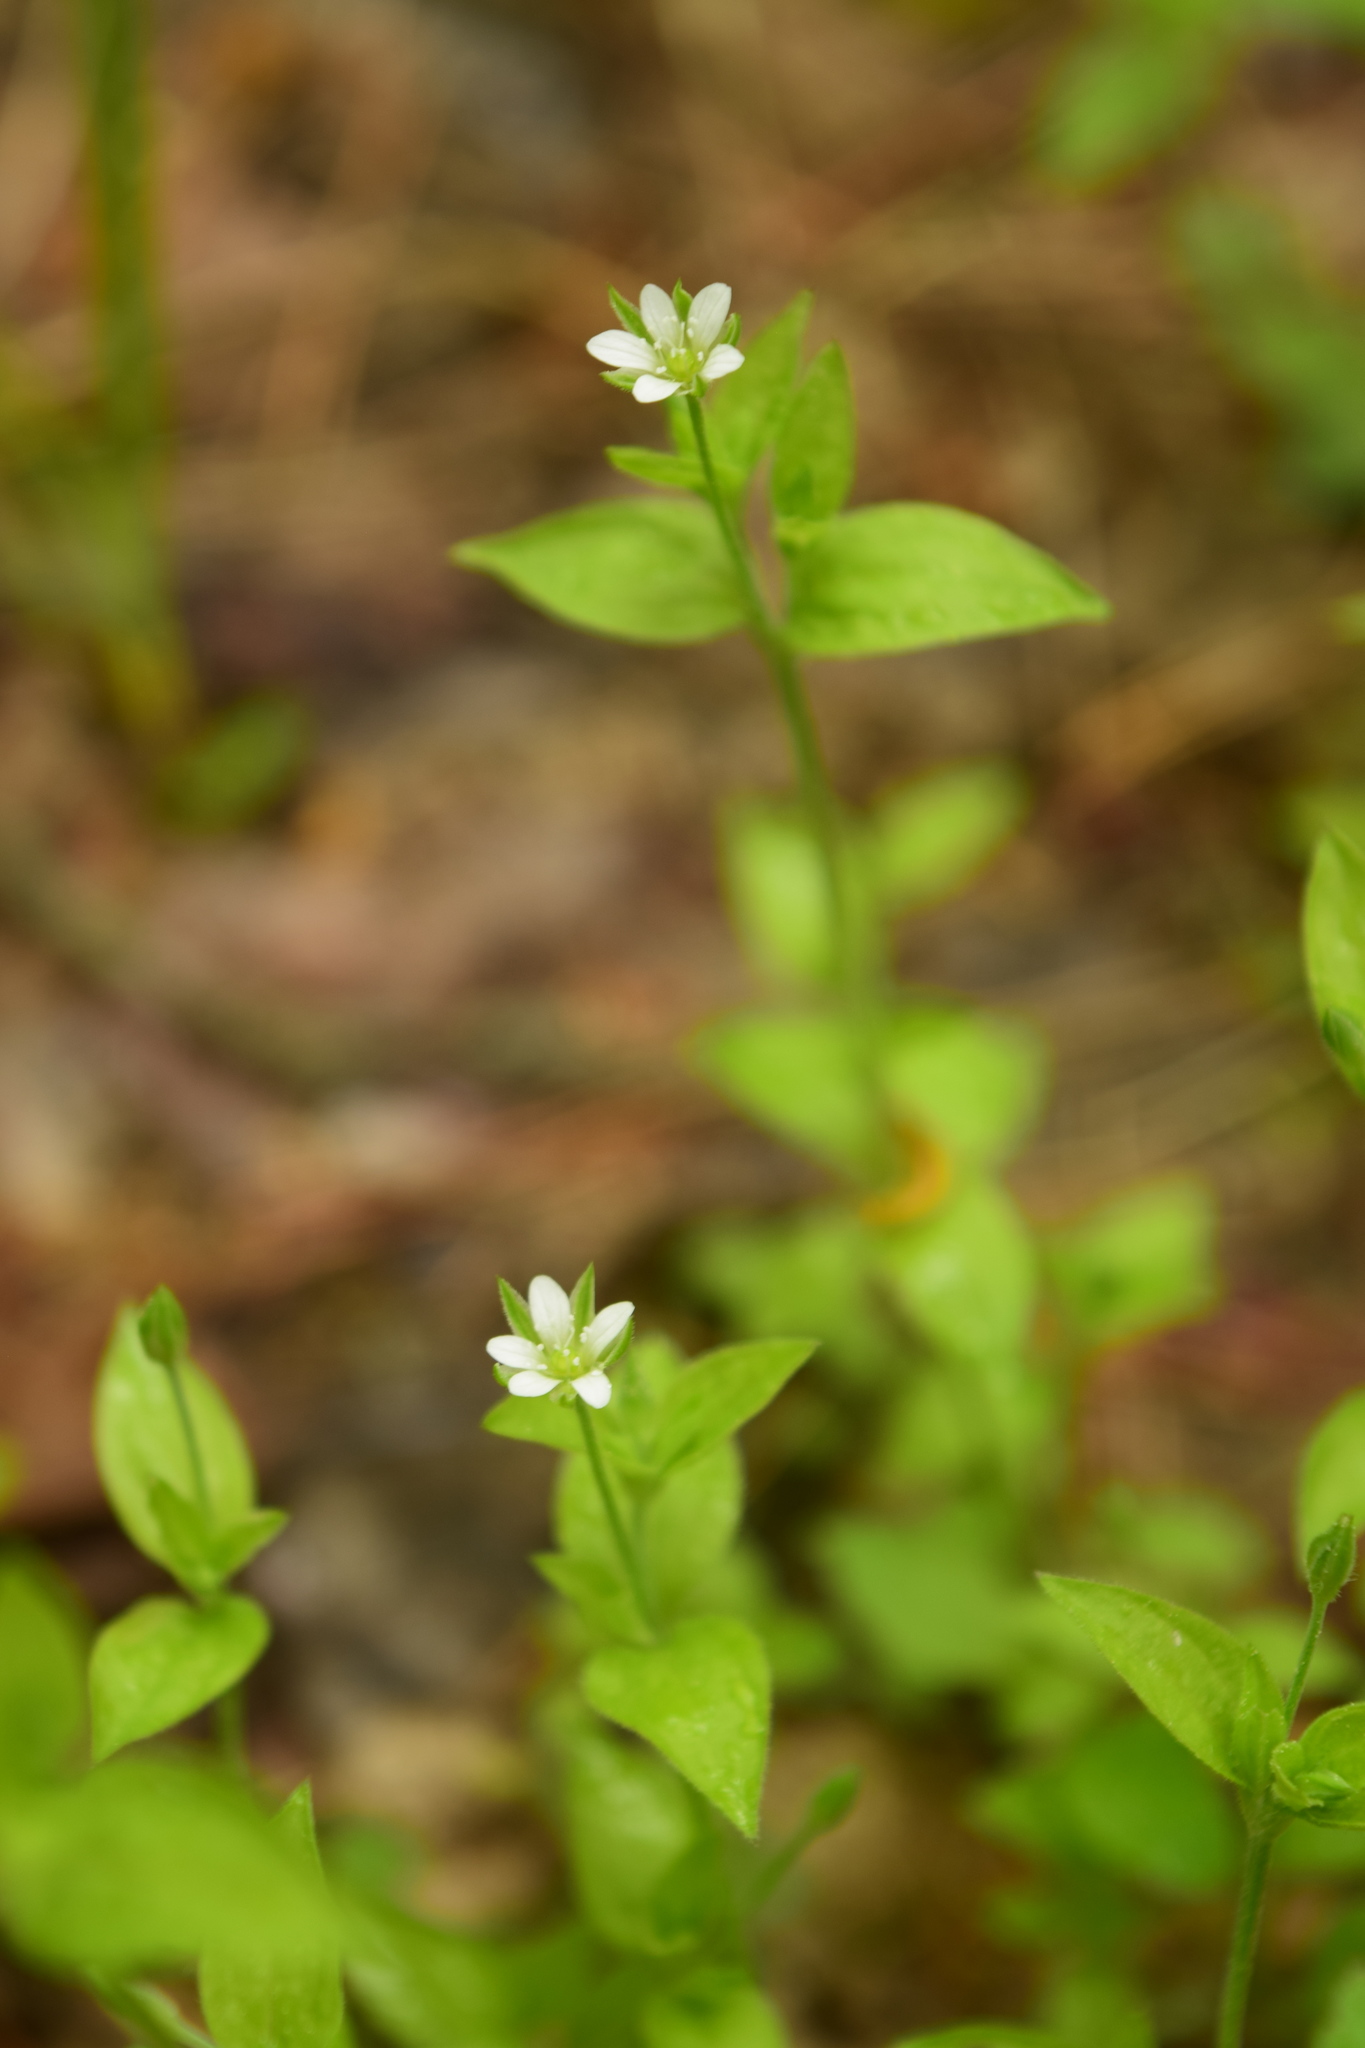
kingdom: Plantae
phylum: Tracheophyta
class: Magnoliopsida
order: Caryophyllales
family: Caryophyllaceae
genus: Moehringia
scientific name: Moehringia trinervia
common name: Three-nerved sandwort
